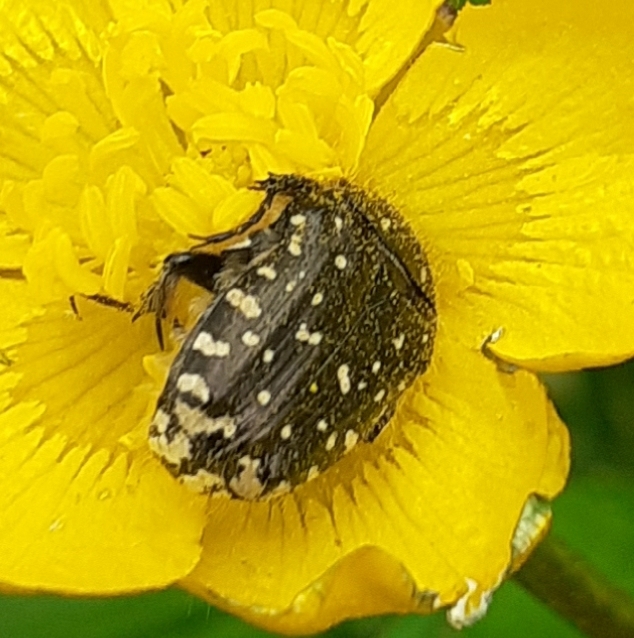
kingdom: Animalia
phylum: Arthropoda
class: Insecta
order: Coleoptera
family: Scarabaeidae
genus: Oxythyrea
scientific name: Oxythyrea funesta
